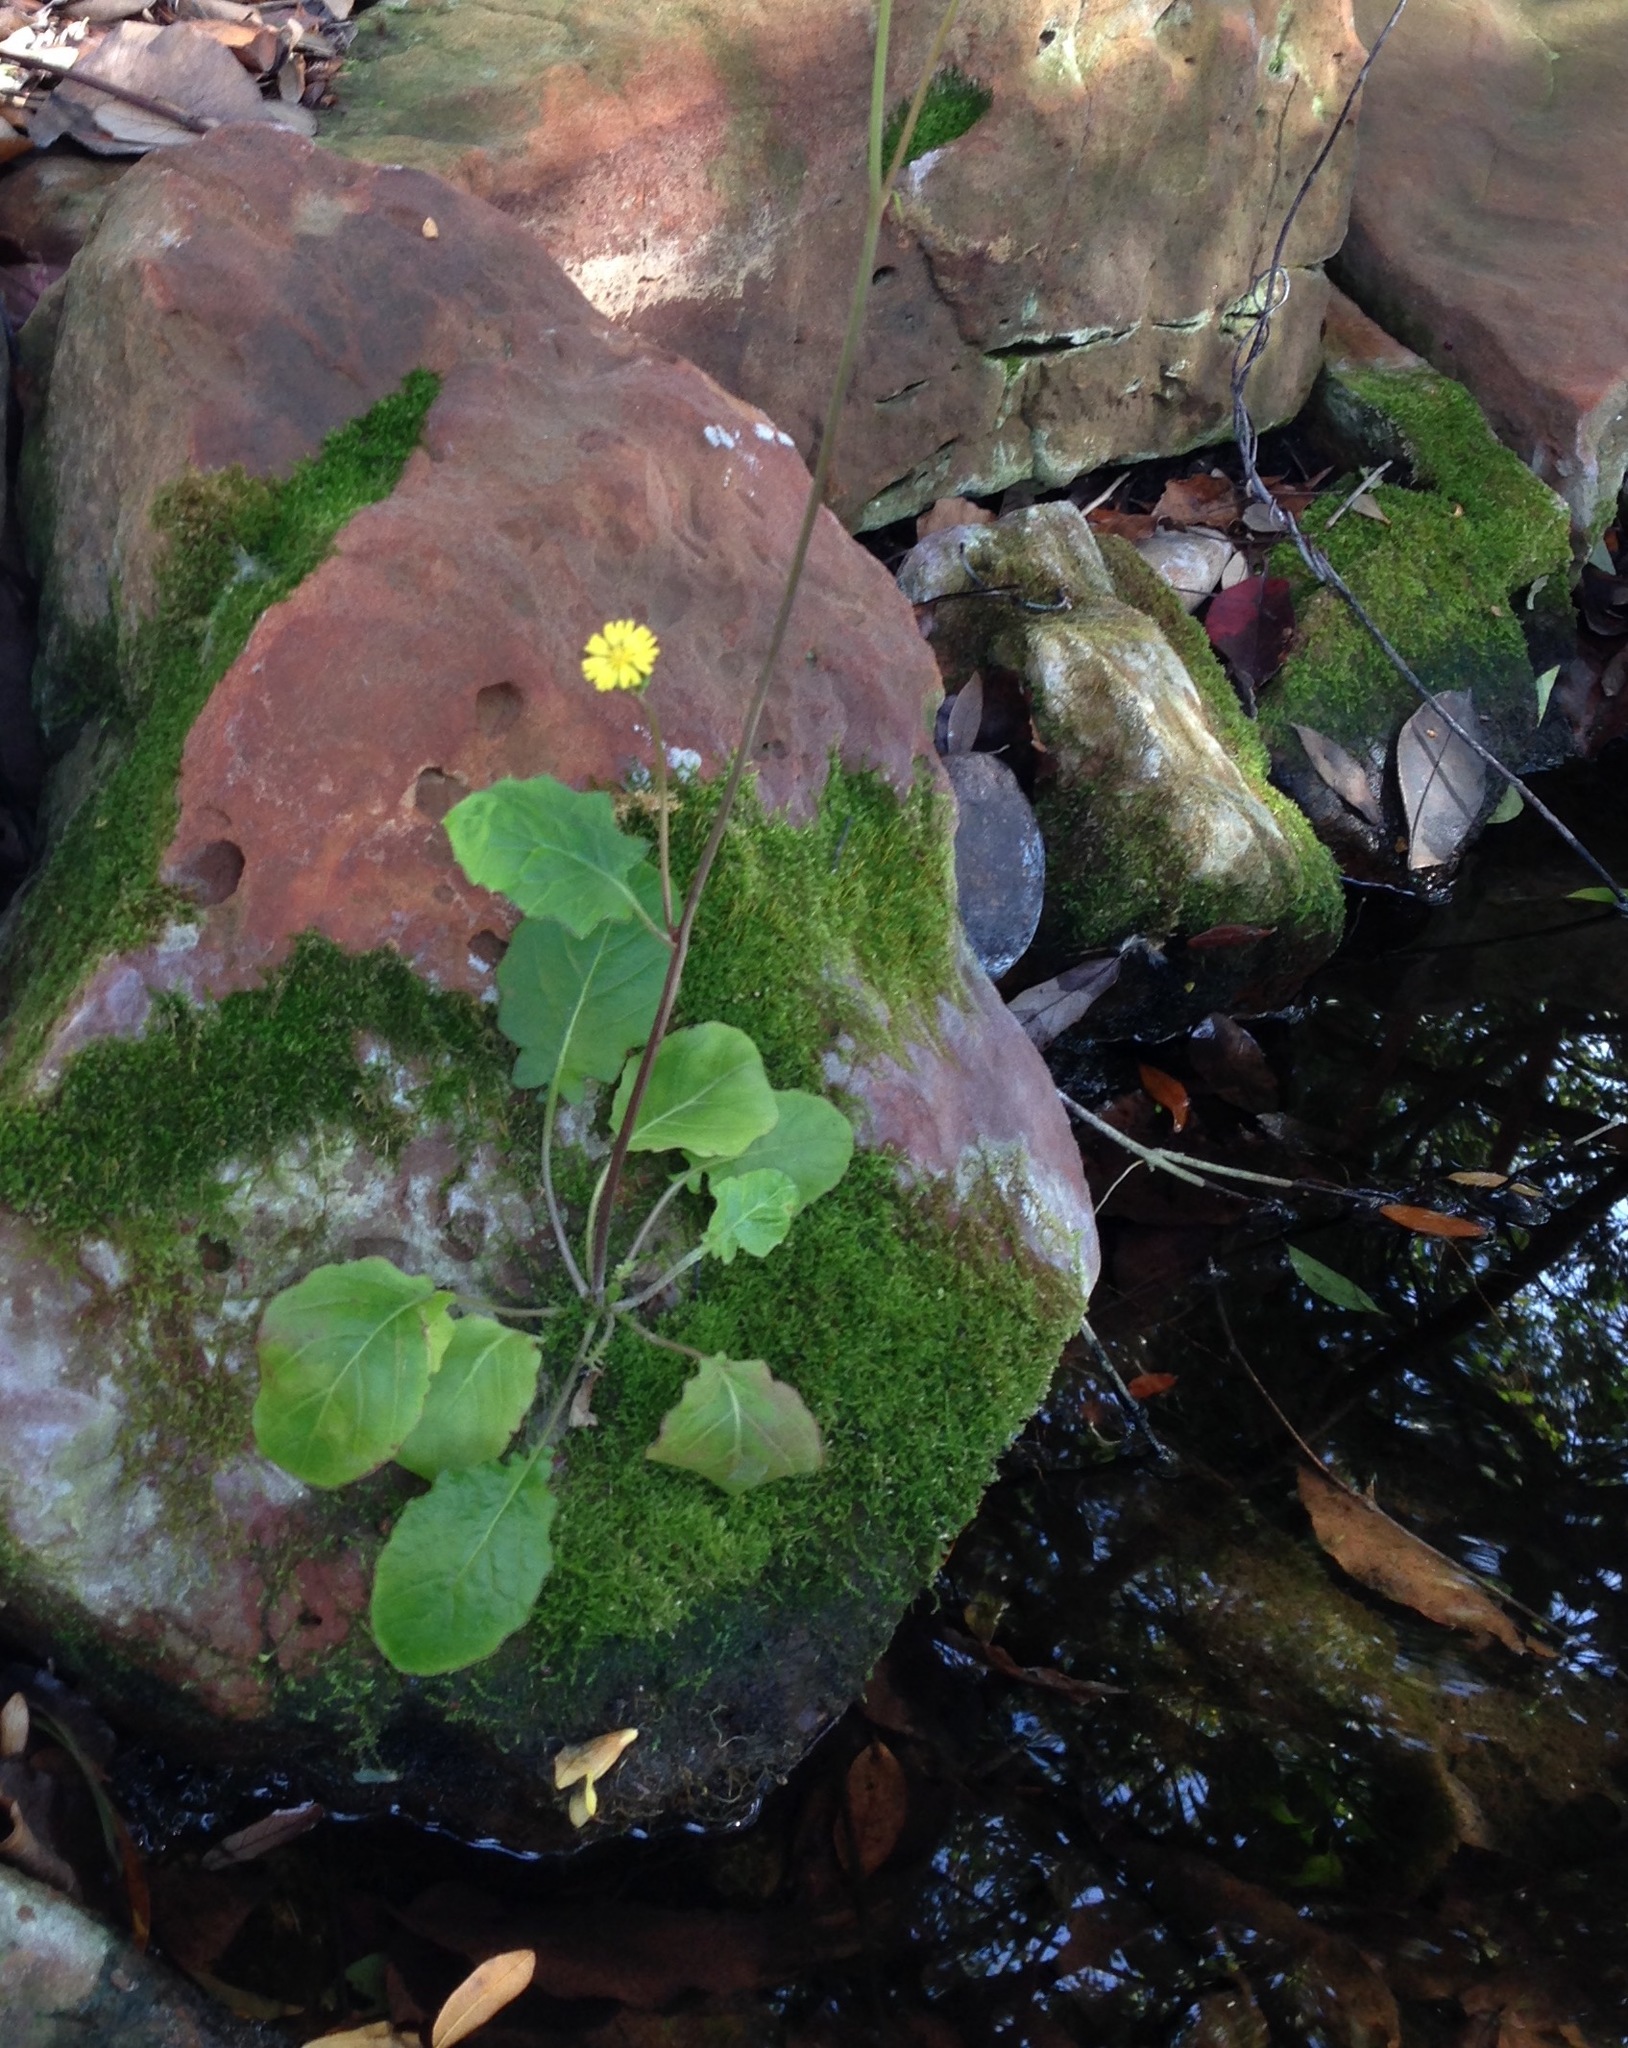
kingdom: Plantae
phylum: Tracheophyta
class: Magnoliopsida
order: Asterales
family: Asteraceae
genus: Youngia
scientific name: Youngia japonica
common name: Oriental false hawksbeard
